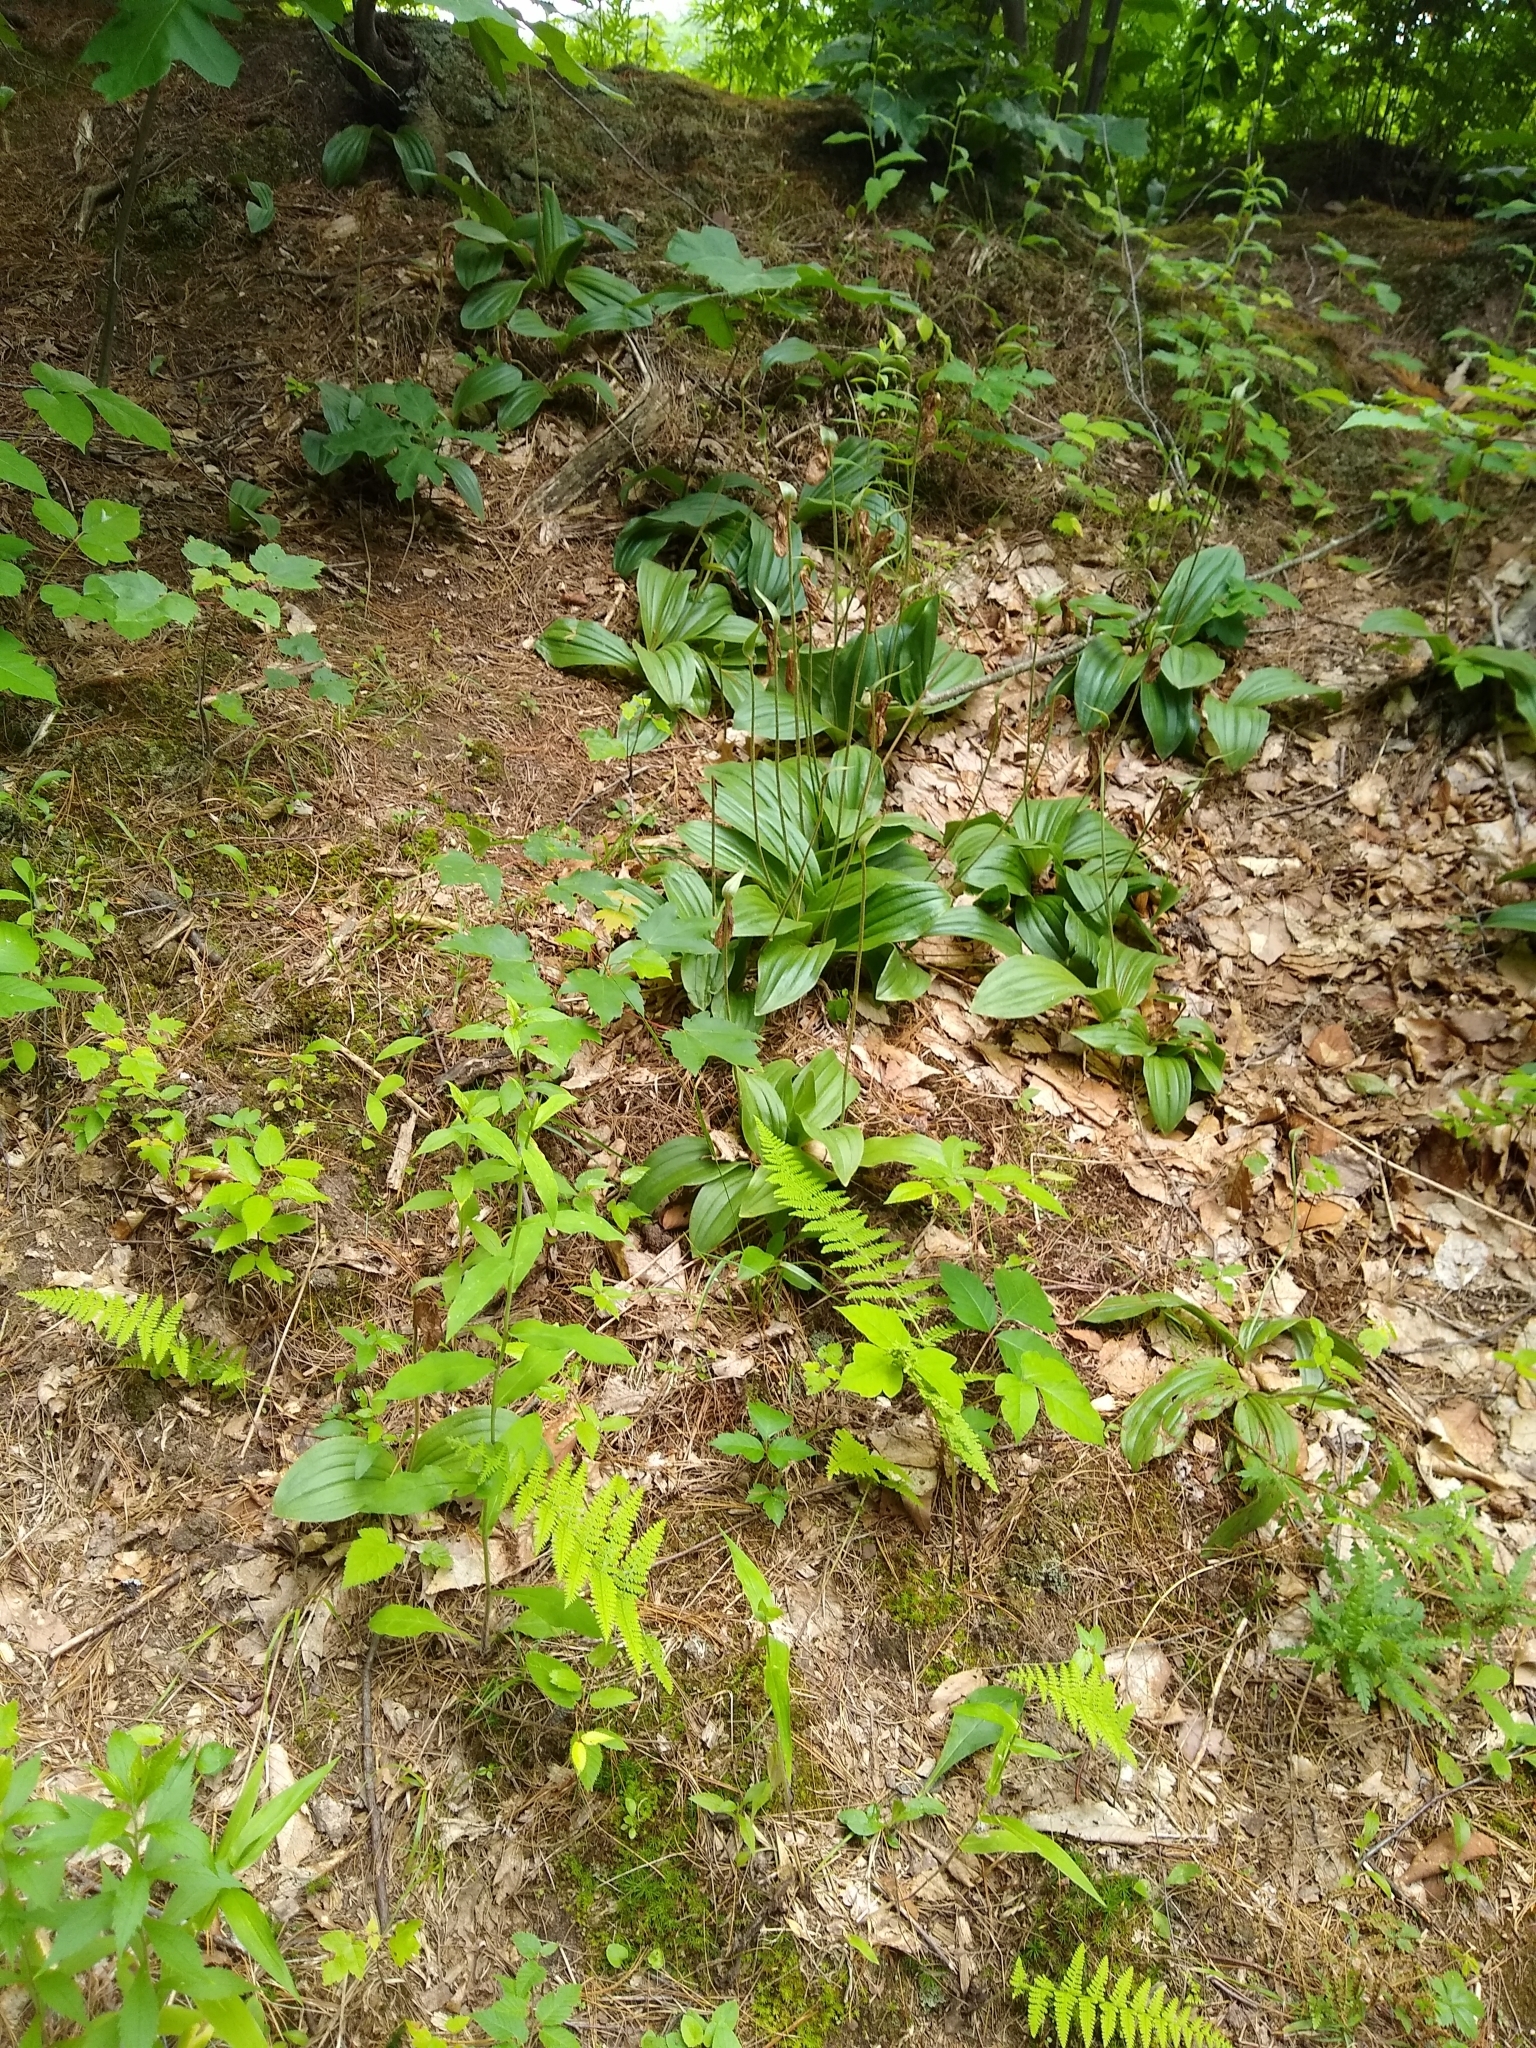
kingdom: Plantae
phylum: Tracheophyta
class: Liliopsida
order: Asparagales
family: Orchidaceae
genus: Cypripedium
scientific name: Cypripedium acaule
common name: Pink lady's-slipper
